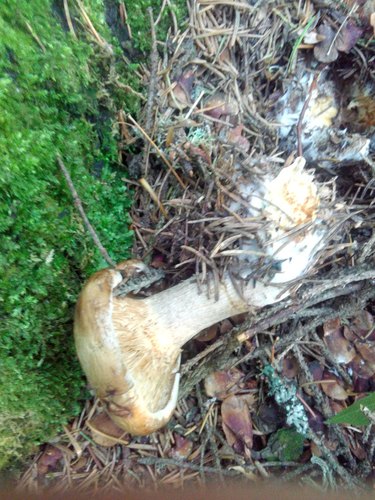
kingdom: Fungi
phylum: Basidiomycota
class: Agaricomycetes
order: Boletales
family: Paxillaceae
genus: Paxillus
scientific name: Paxillus involutus
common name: Brown roll rim
